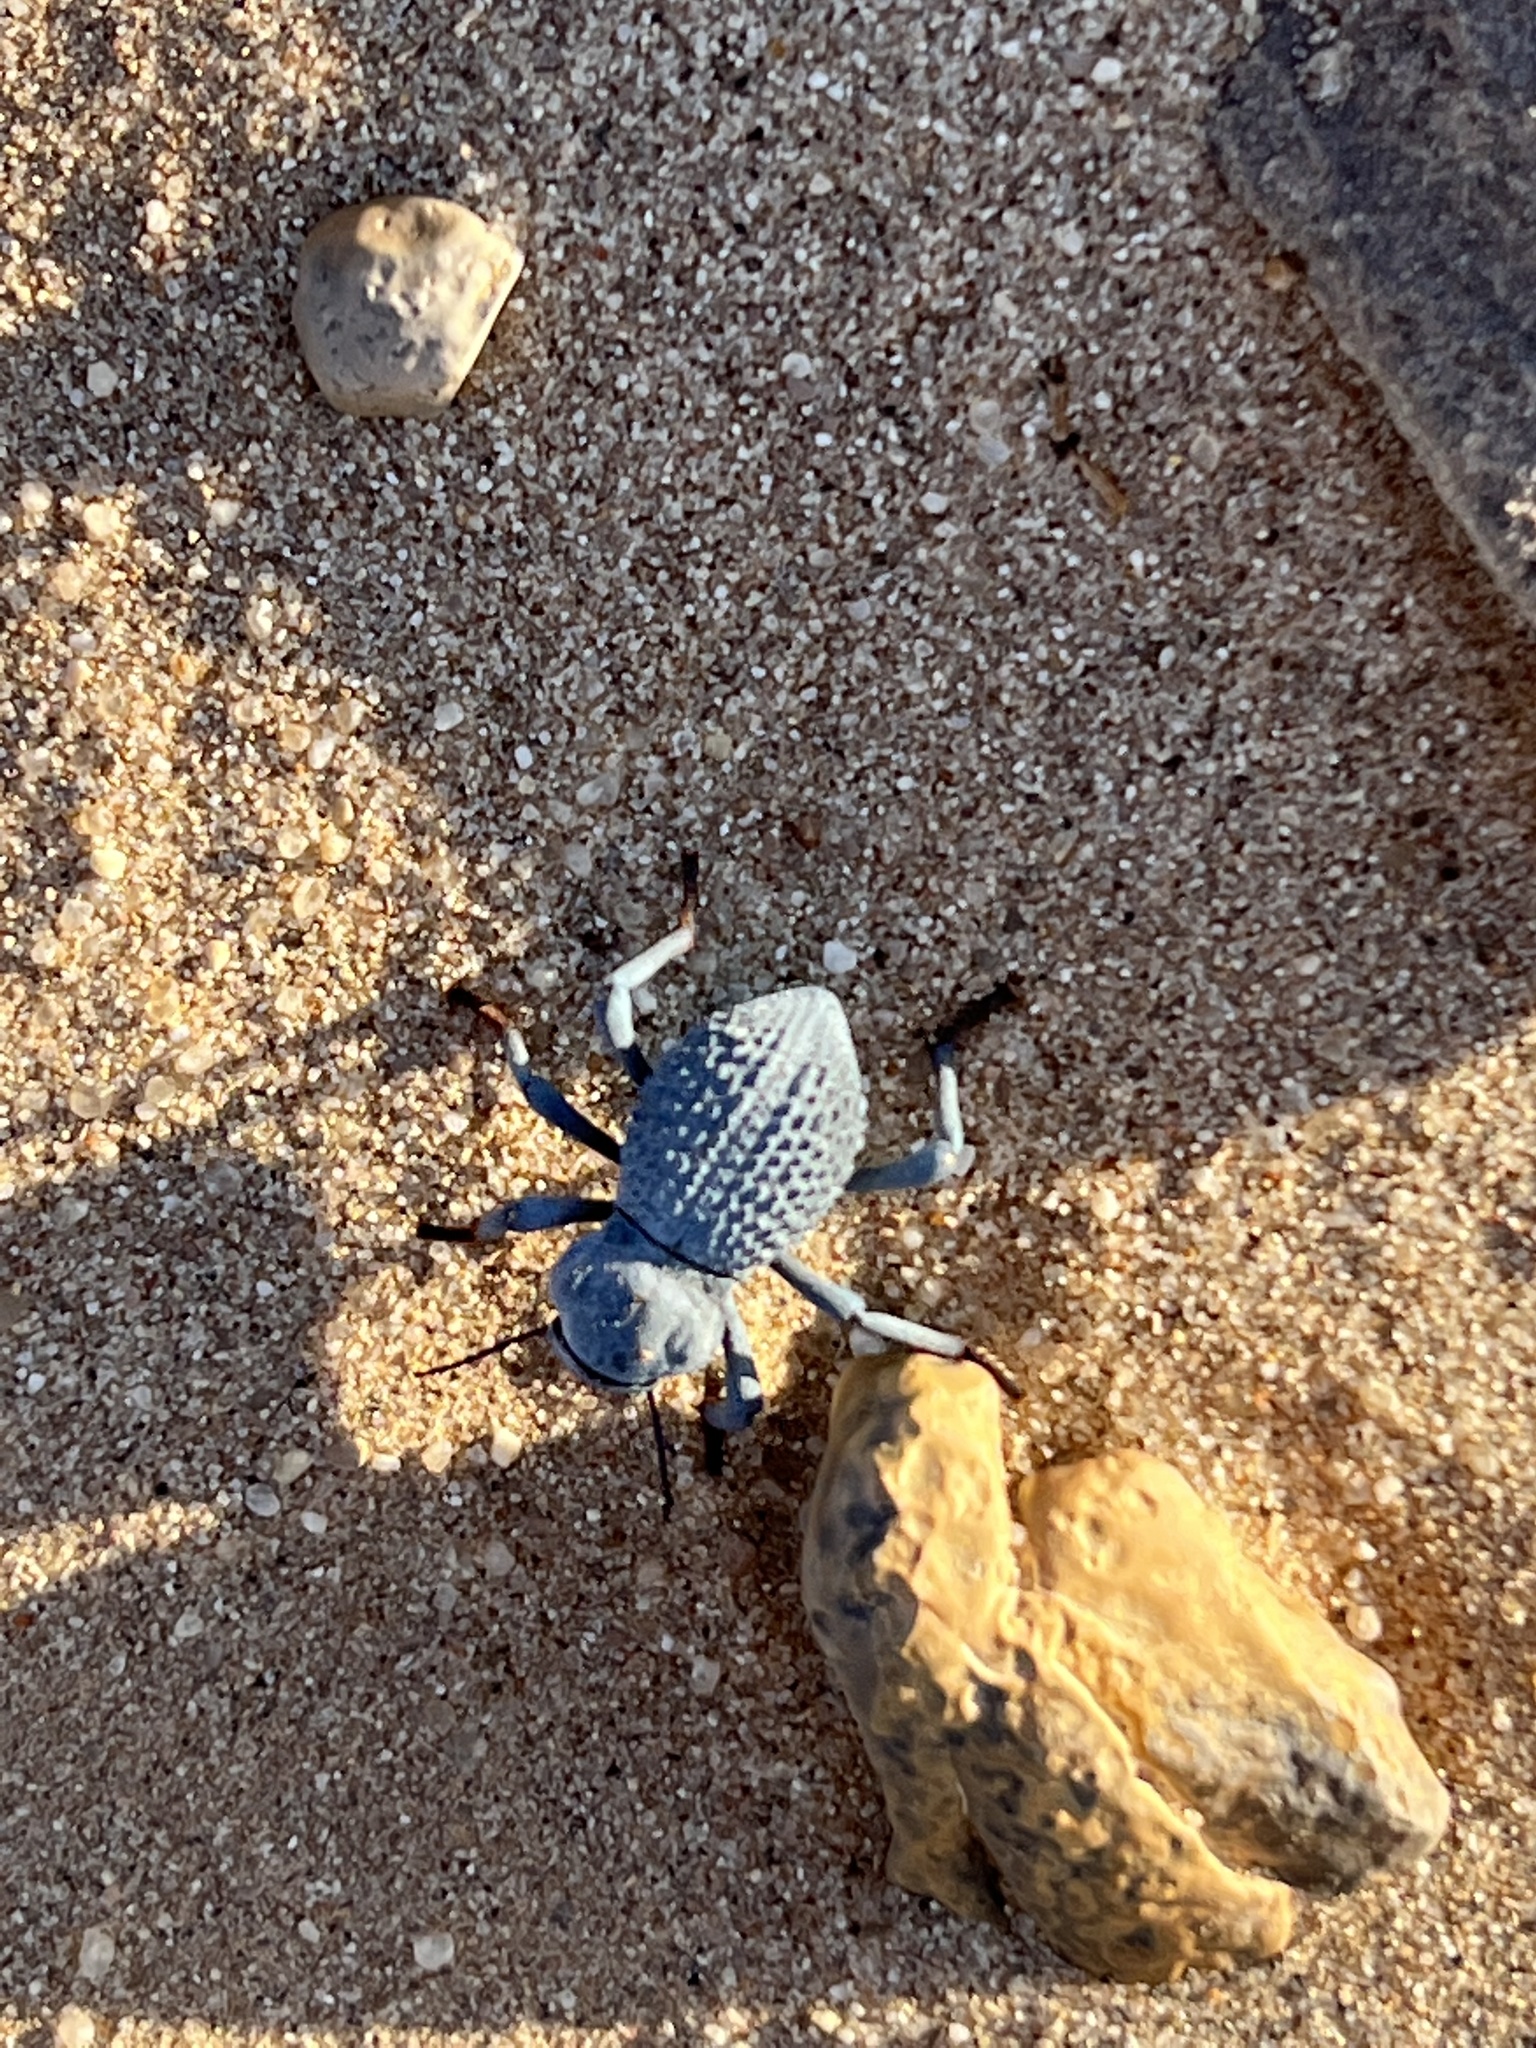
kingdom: Animalia
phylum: Arthropoda
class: Insecta
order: Coleoptera
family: Tenebrionidae
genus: Asbolus
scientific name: Asbolus verrucosus
